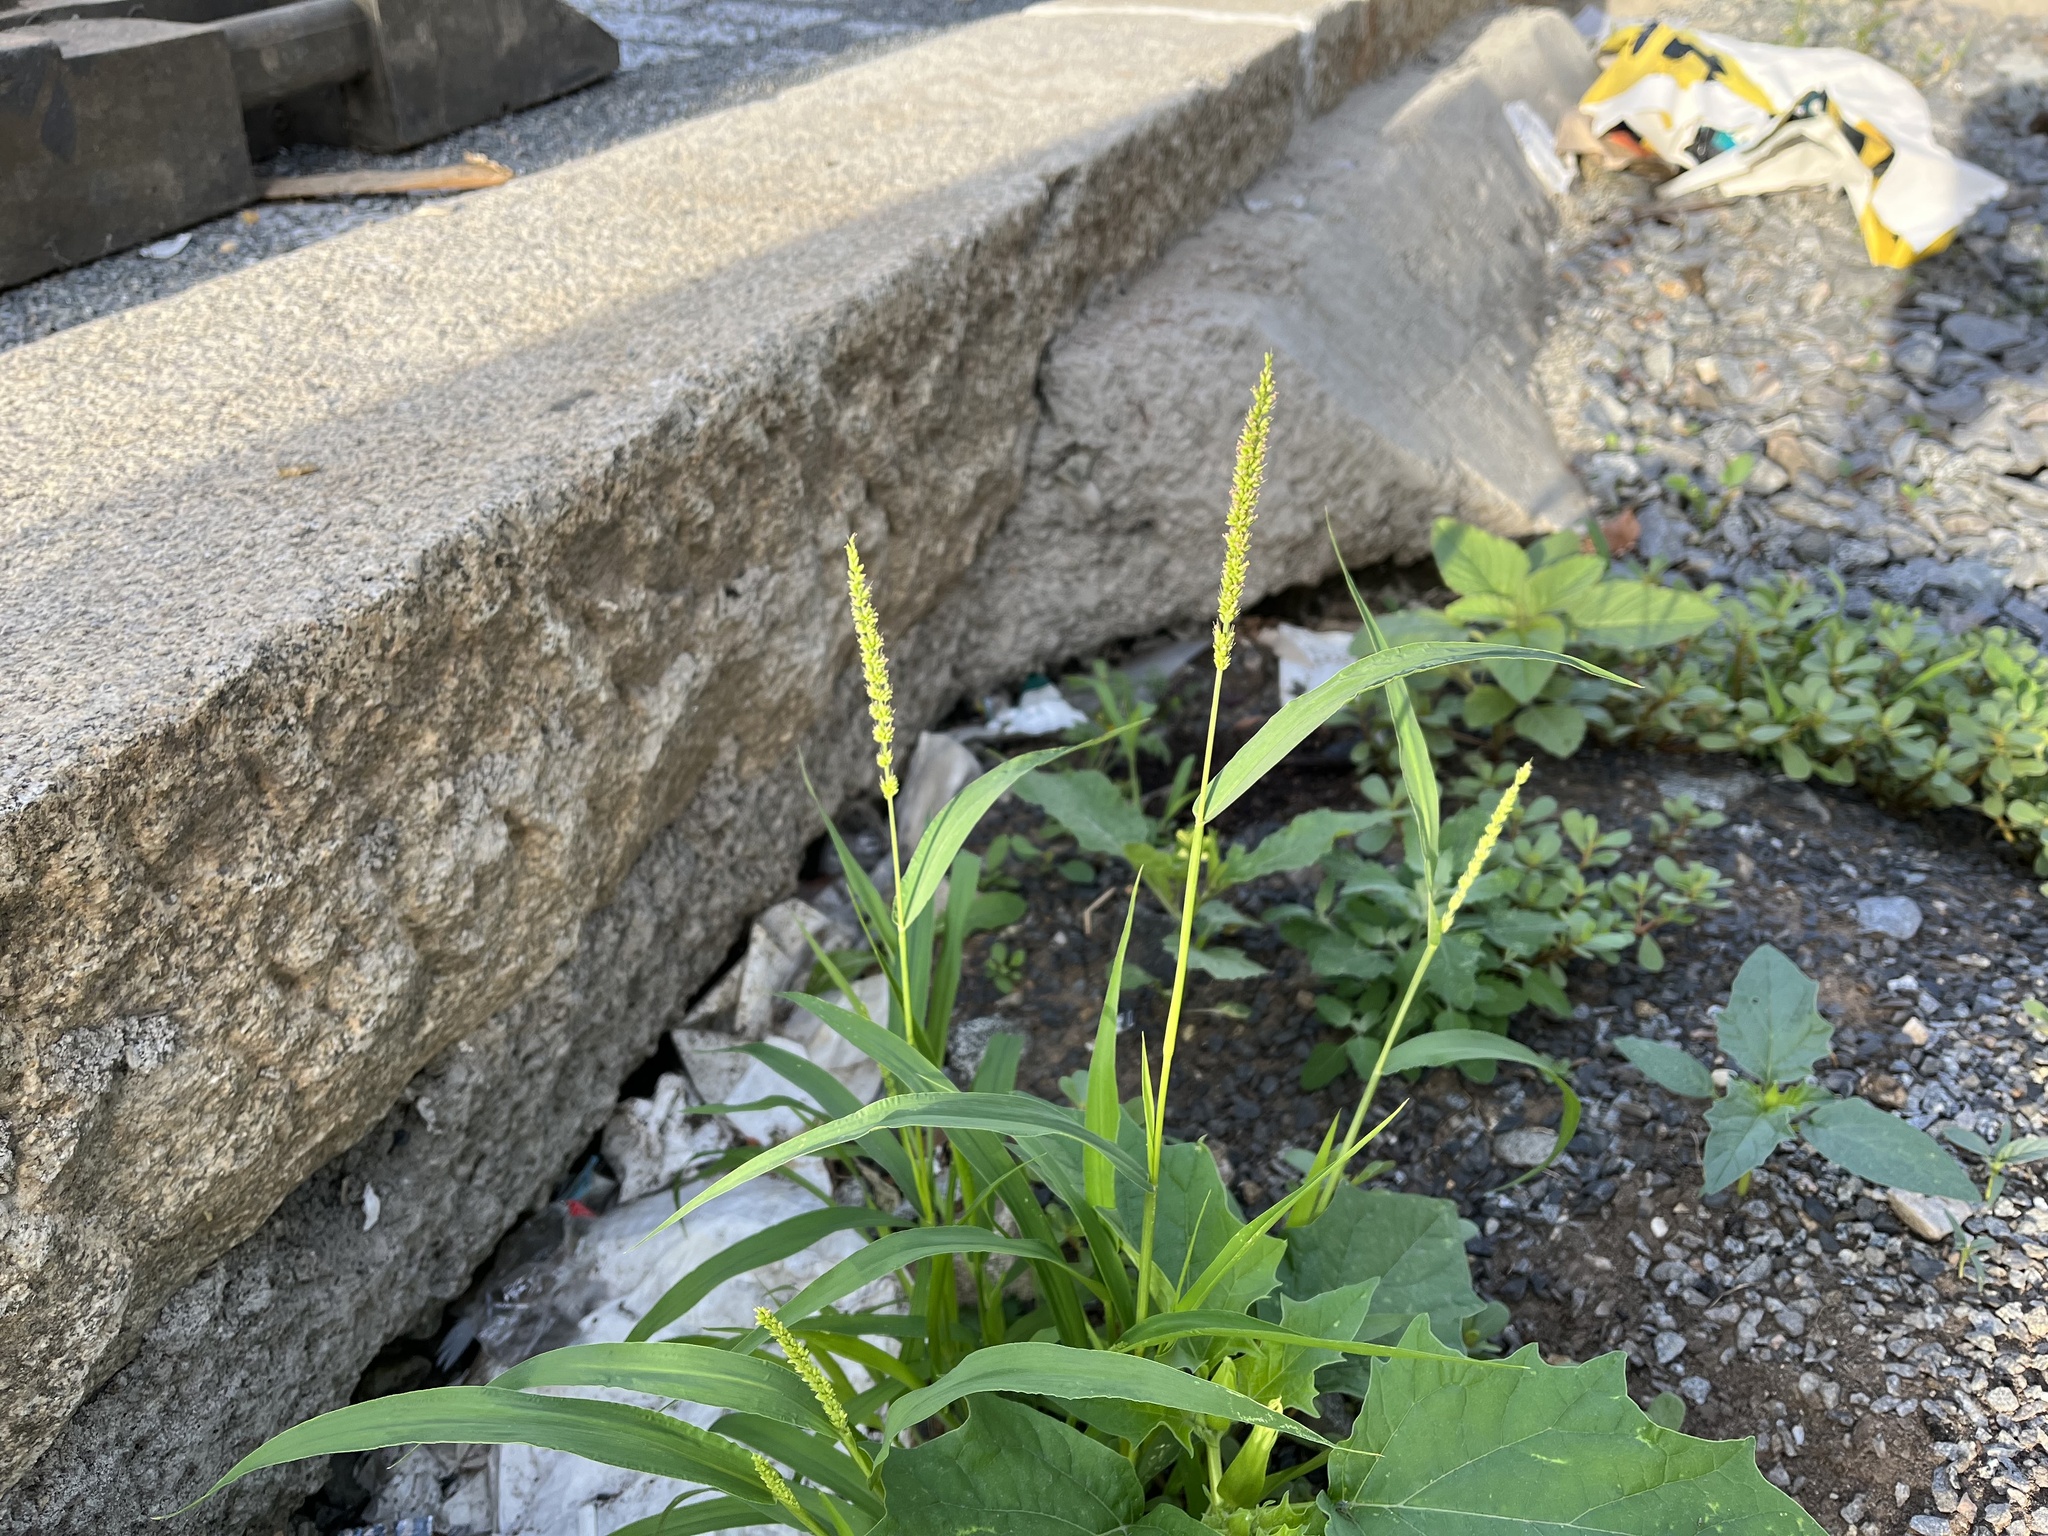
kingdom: Plantae
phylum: Tracheophyta
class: Liliopsida
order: Poales
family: Poaceae
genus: Setaria
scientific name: Setaria verticillata
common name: Hooked bristlegrass
